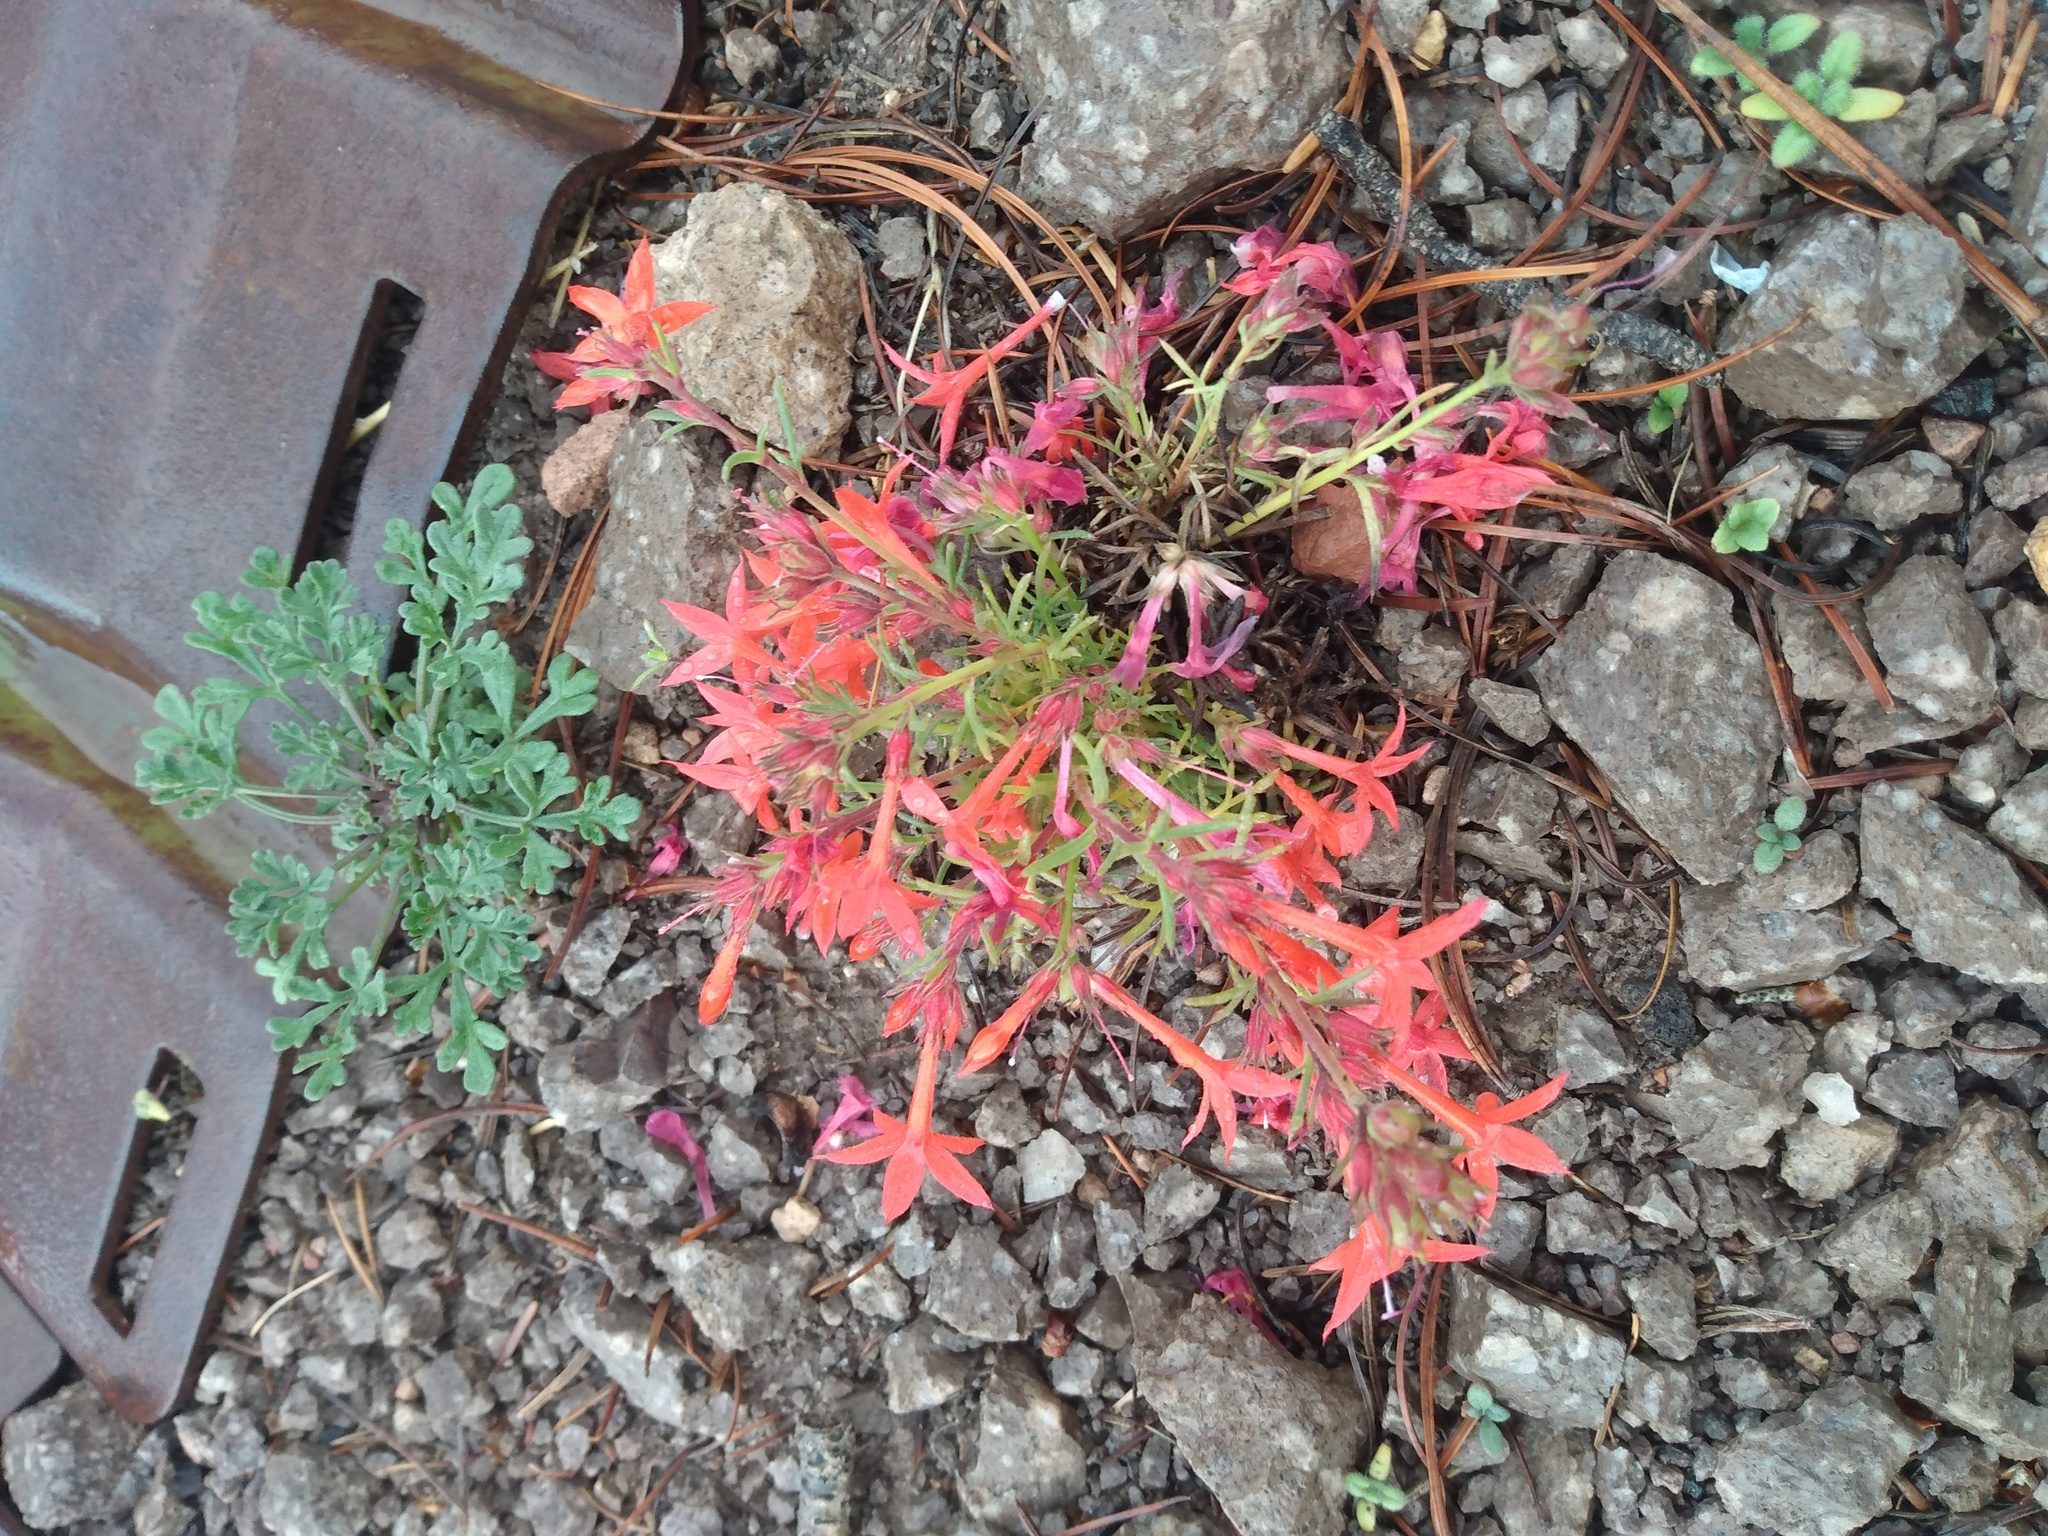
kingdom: Plantae
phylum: Tracheophyta
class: Magnoliopsida
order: Ericales
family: Polemoniaceae
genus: Ipomopsis
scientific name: Ipomopsis arizonica
